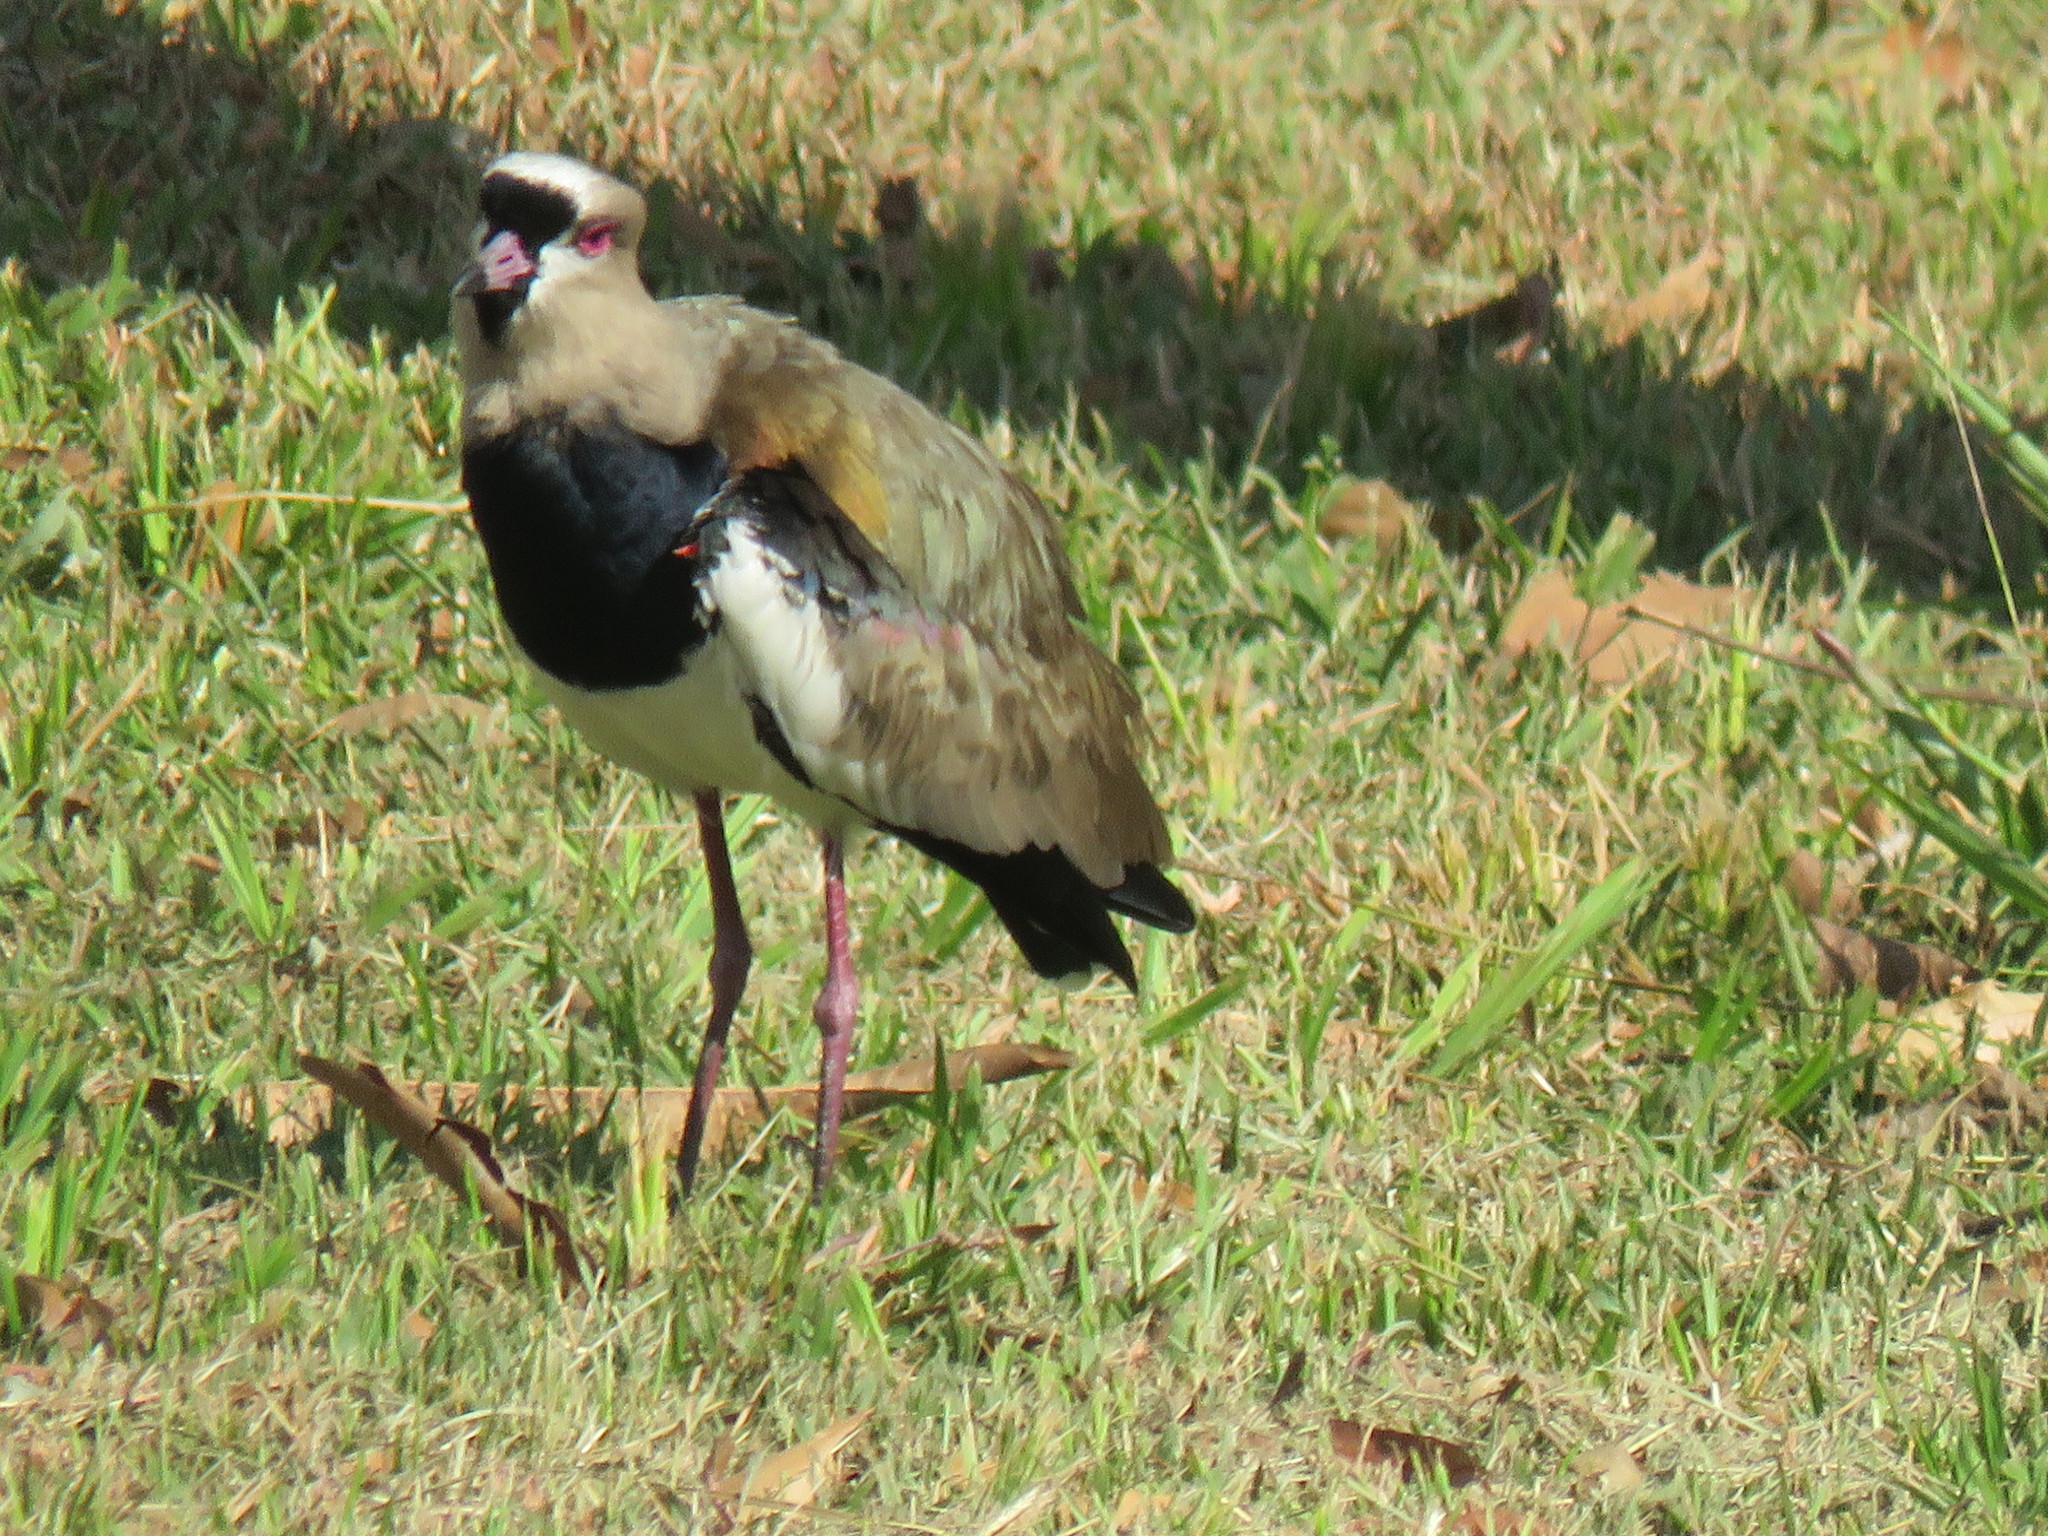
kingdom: Animalia
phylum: Chordata
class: Aves
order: Charadriiformes
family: Charadriidae
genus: Vanellus
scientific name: Vanellus chilensis
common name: Southern lapwing
